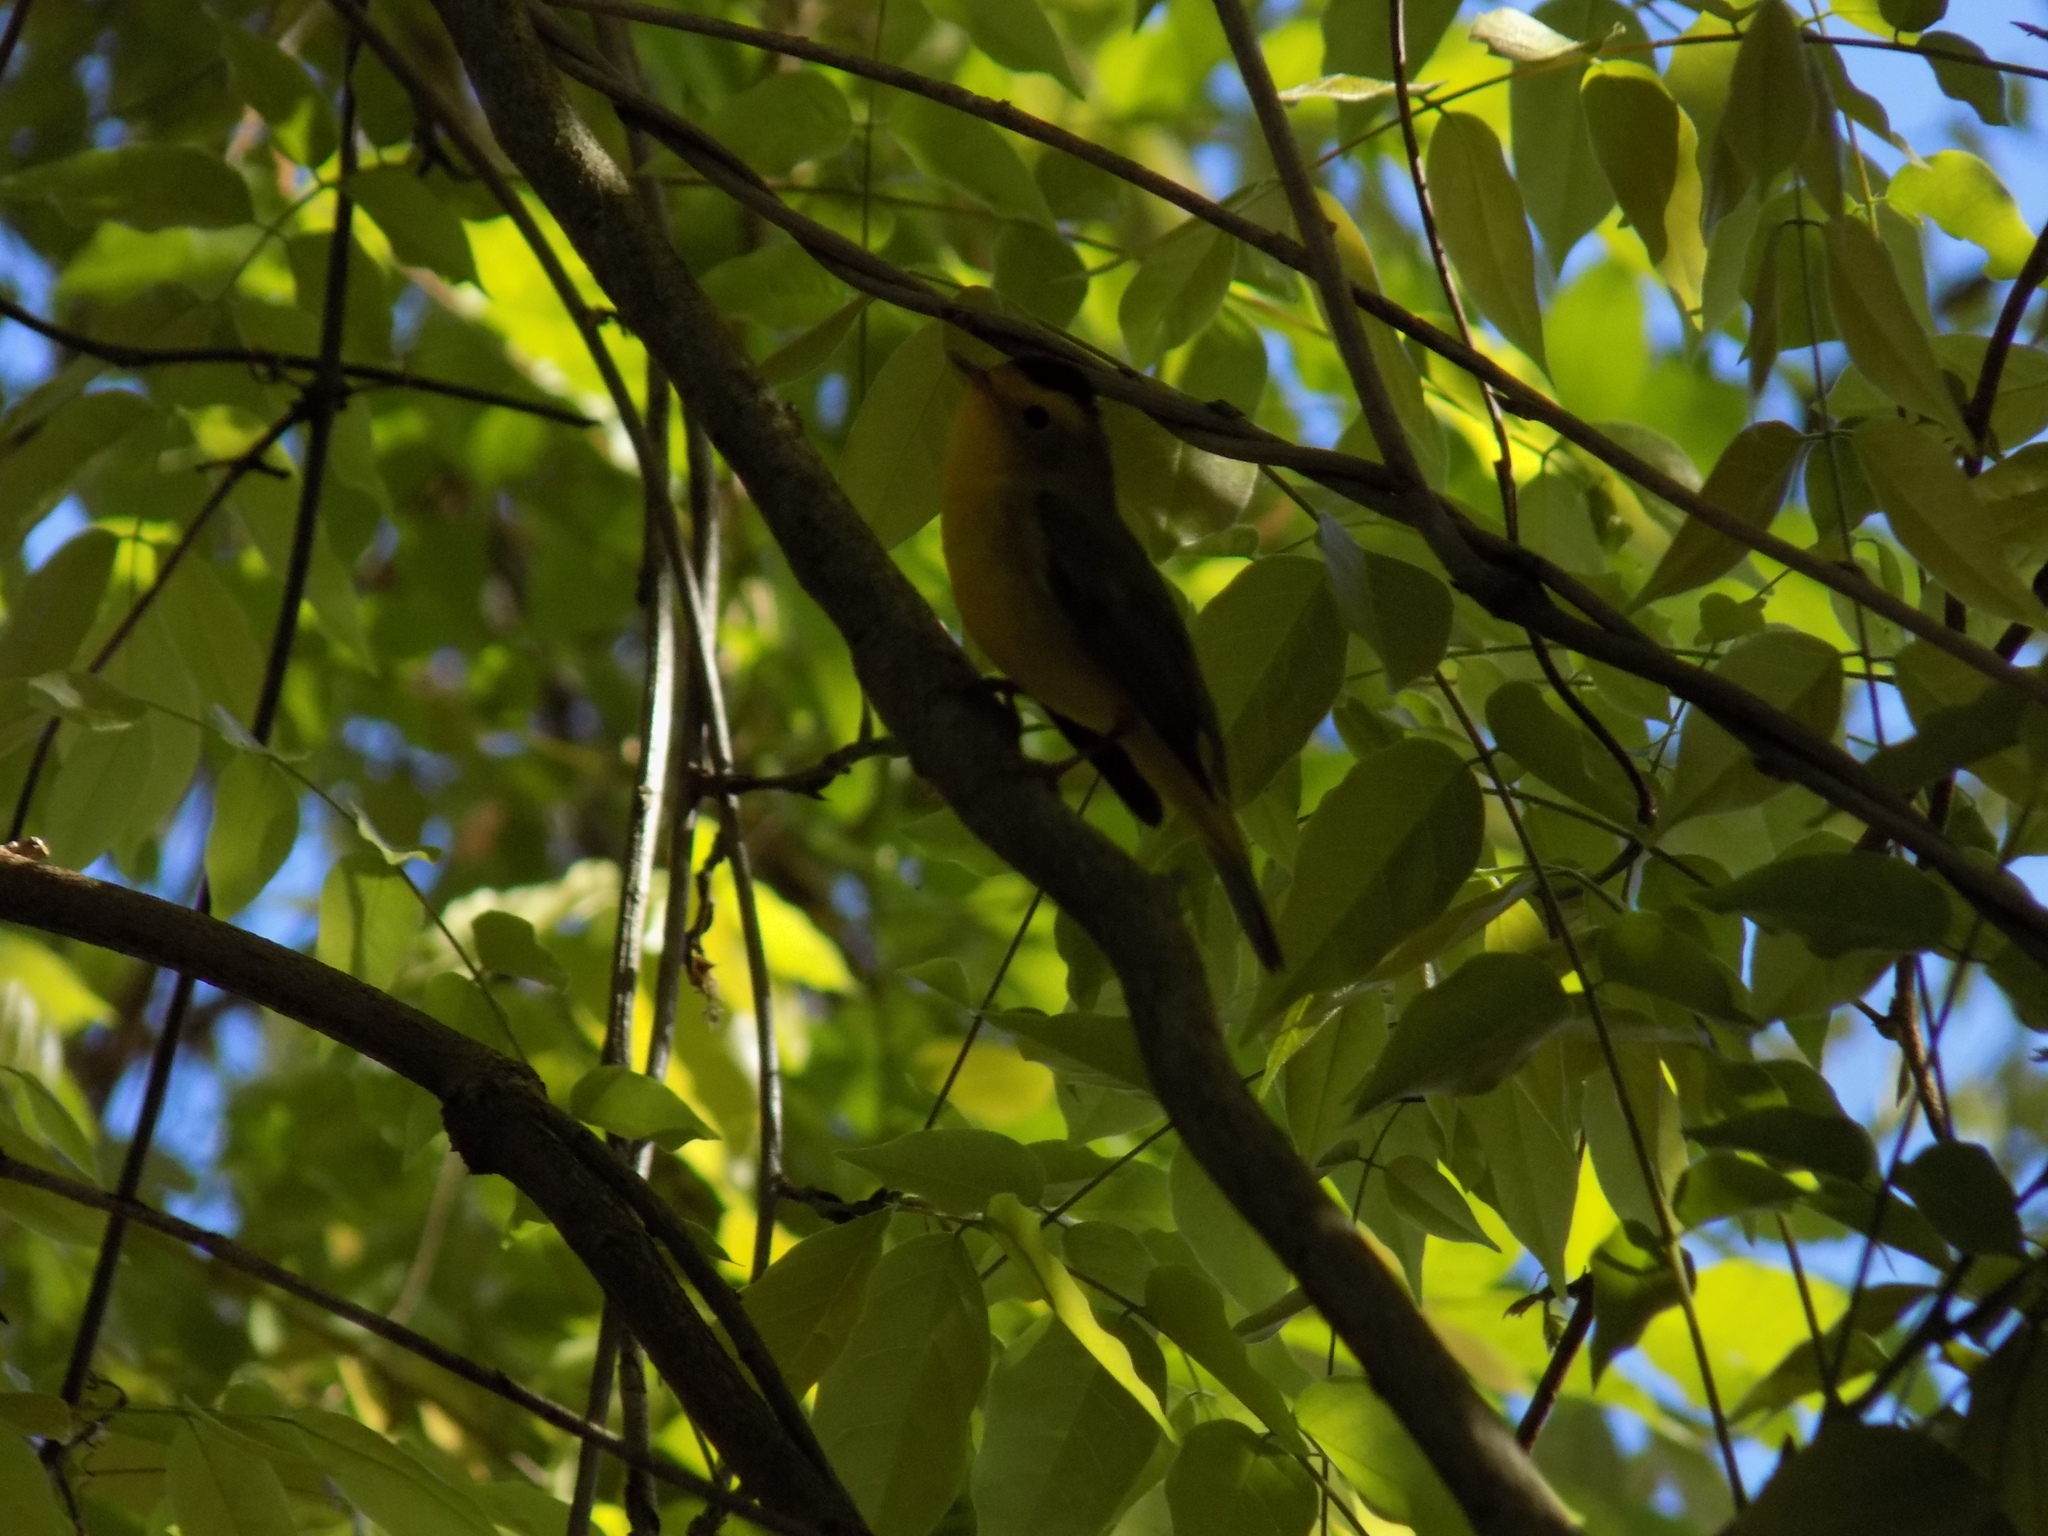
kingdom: Animalia
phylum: Chordata
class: Aves
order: Passeriformes
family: Parulidae
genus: Cardellina
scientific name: Cardellina pusilla
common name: Wilson's warbler
